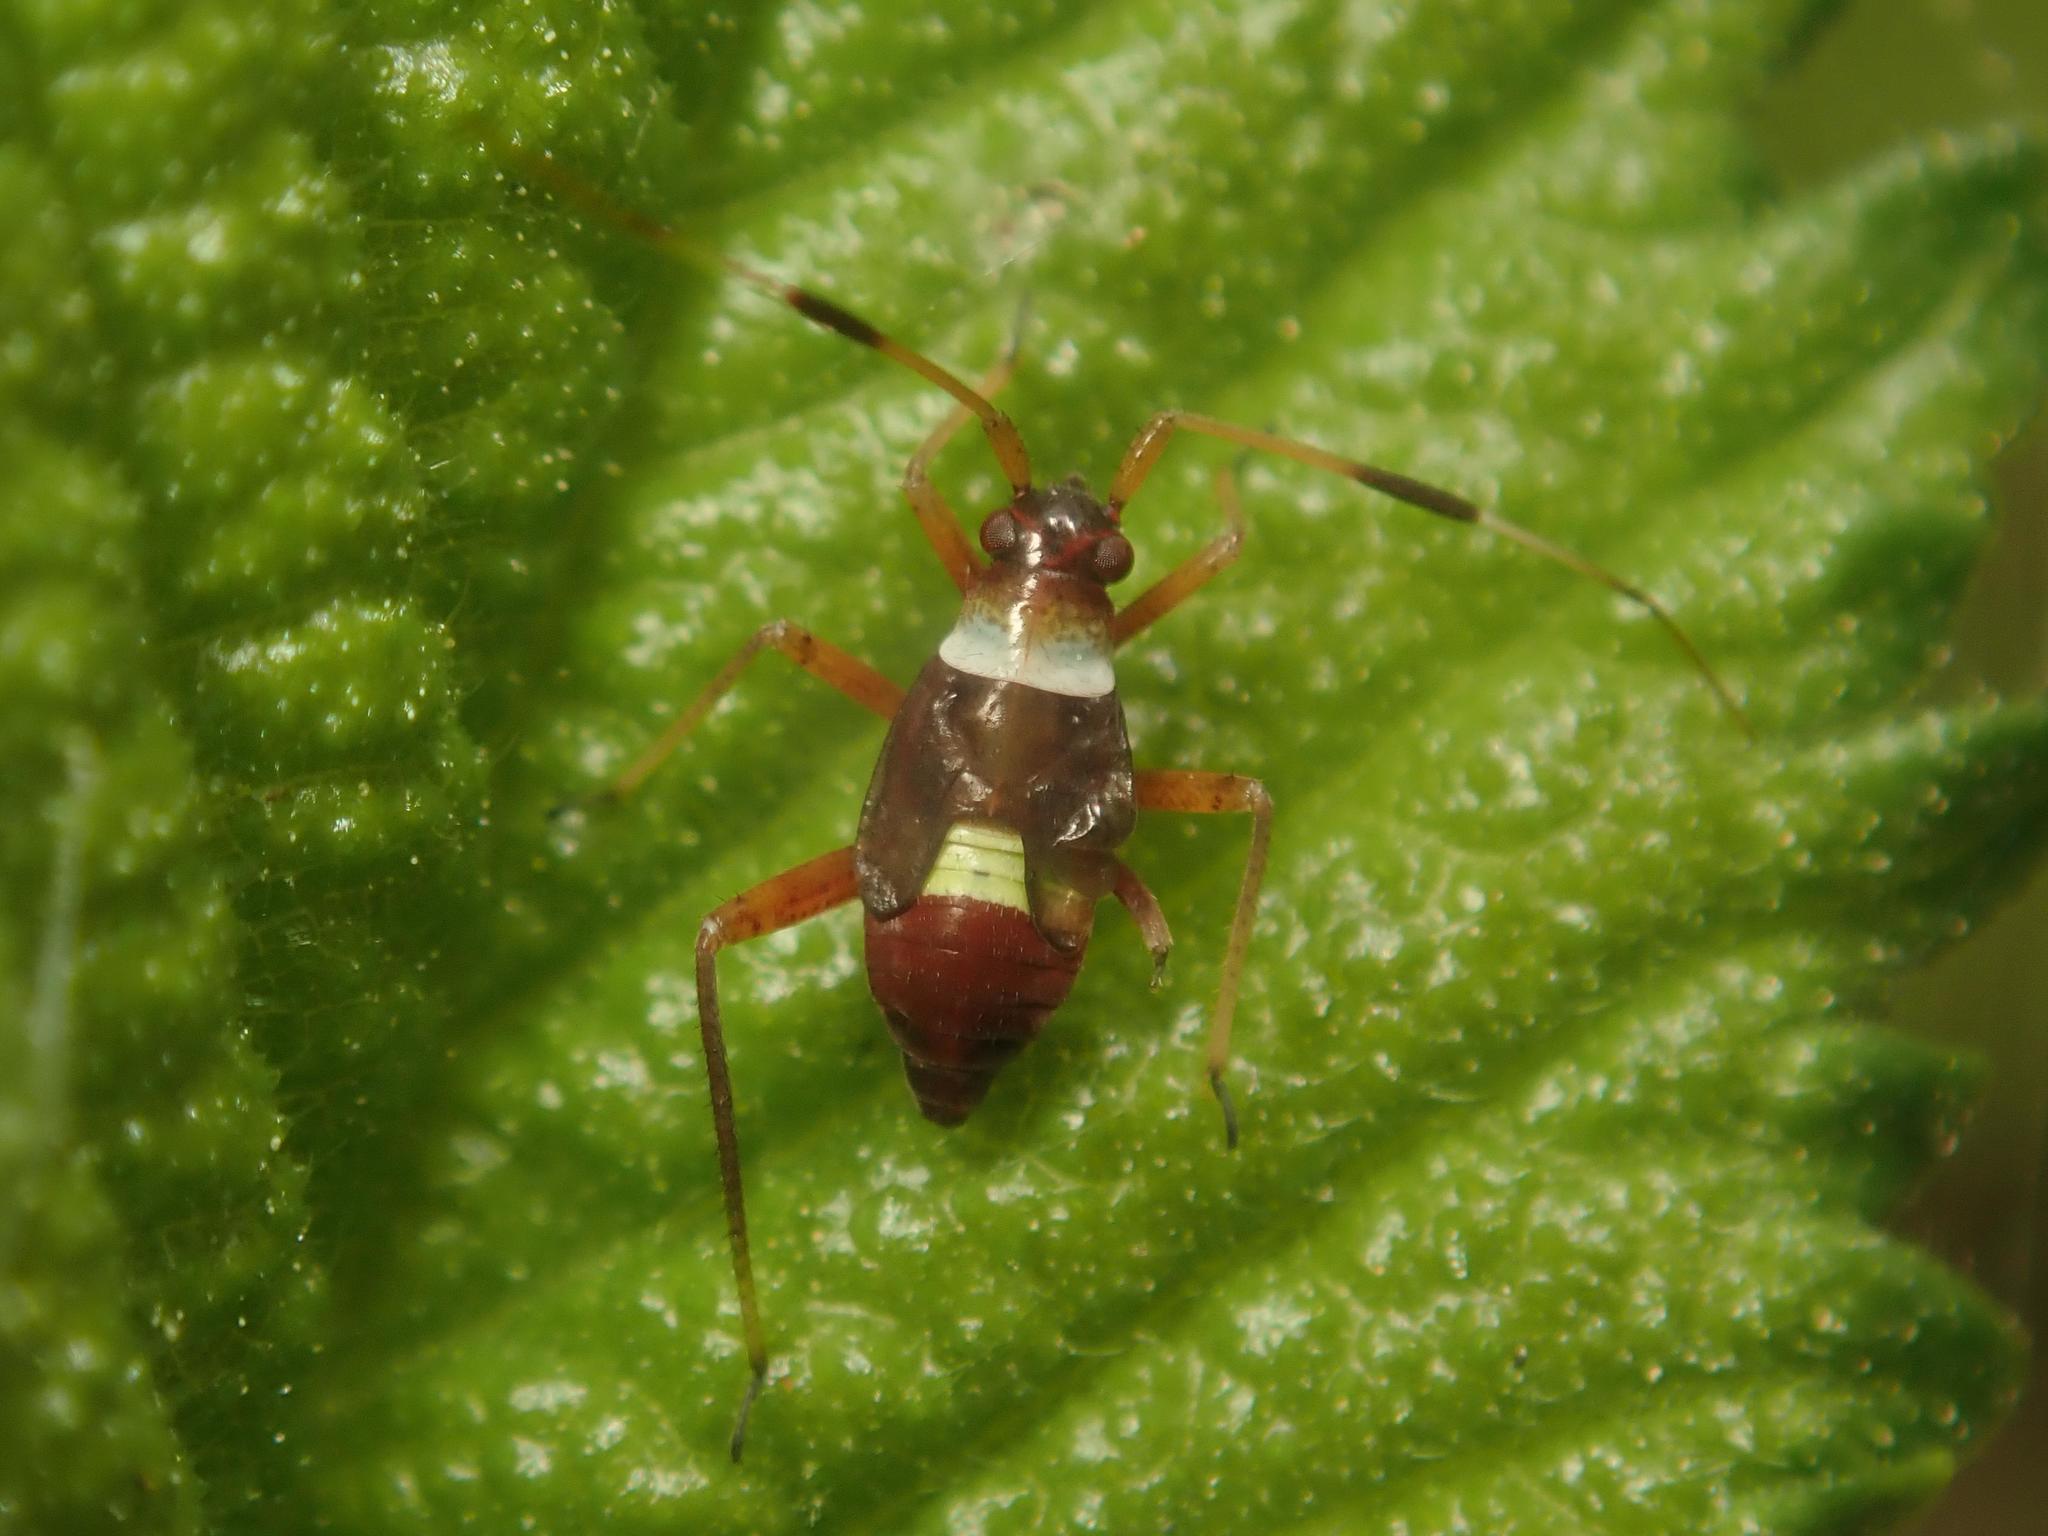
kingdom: Animalia
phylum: Arthropoda
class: Insecta
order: Hemiptera
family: Miridae
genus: Closterotomus
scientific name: Closterotomus biclavatus
